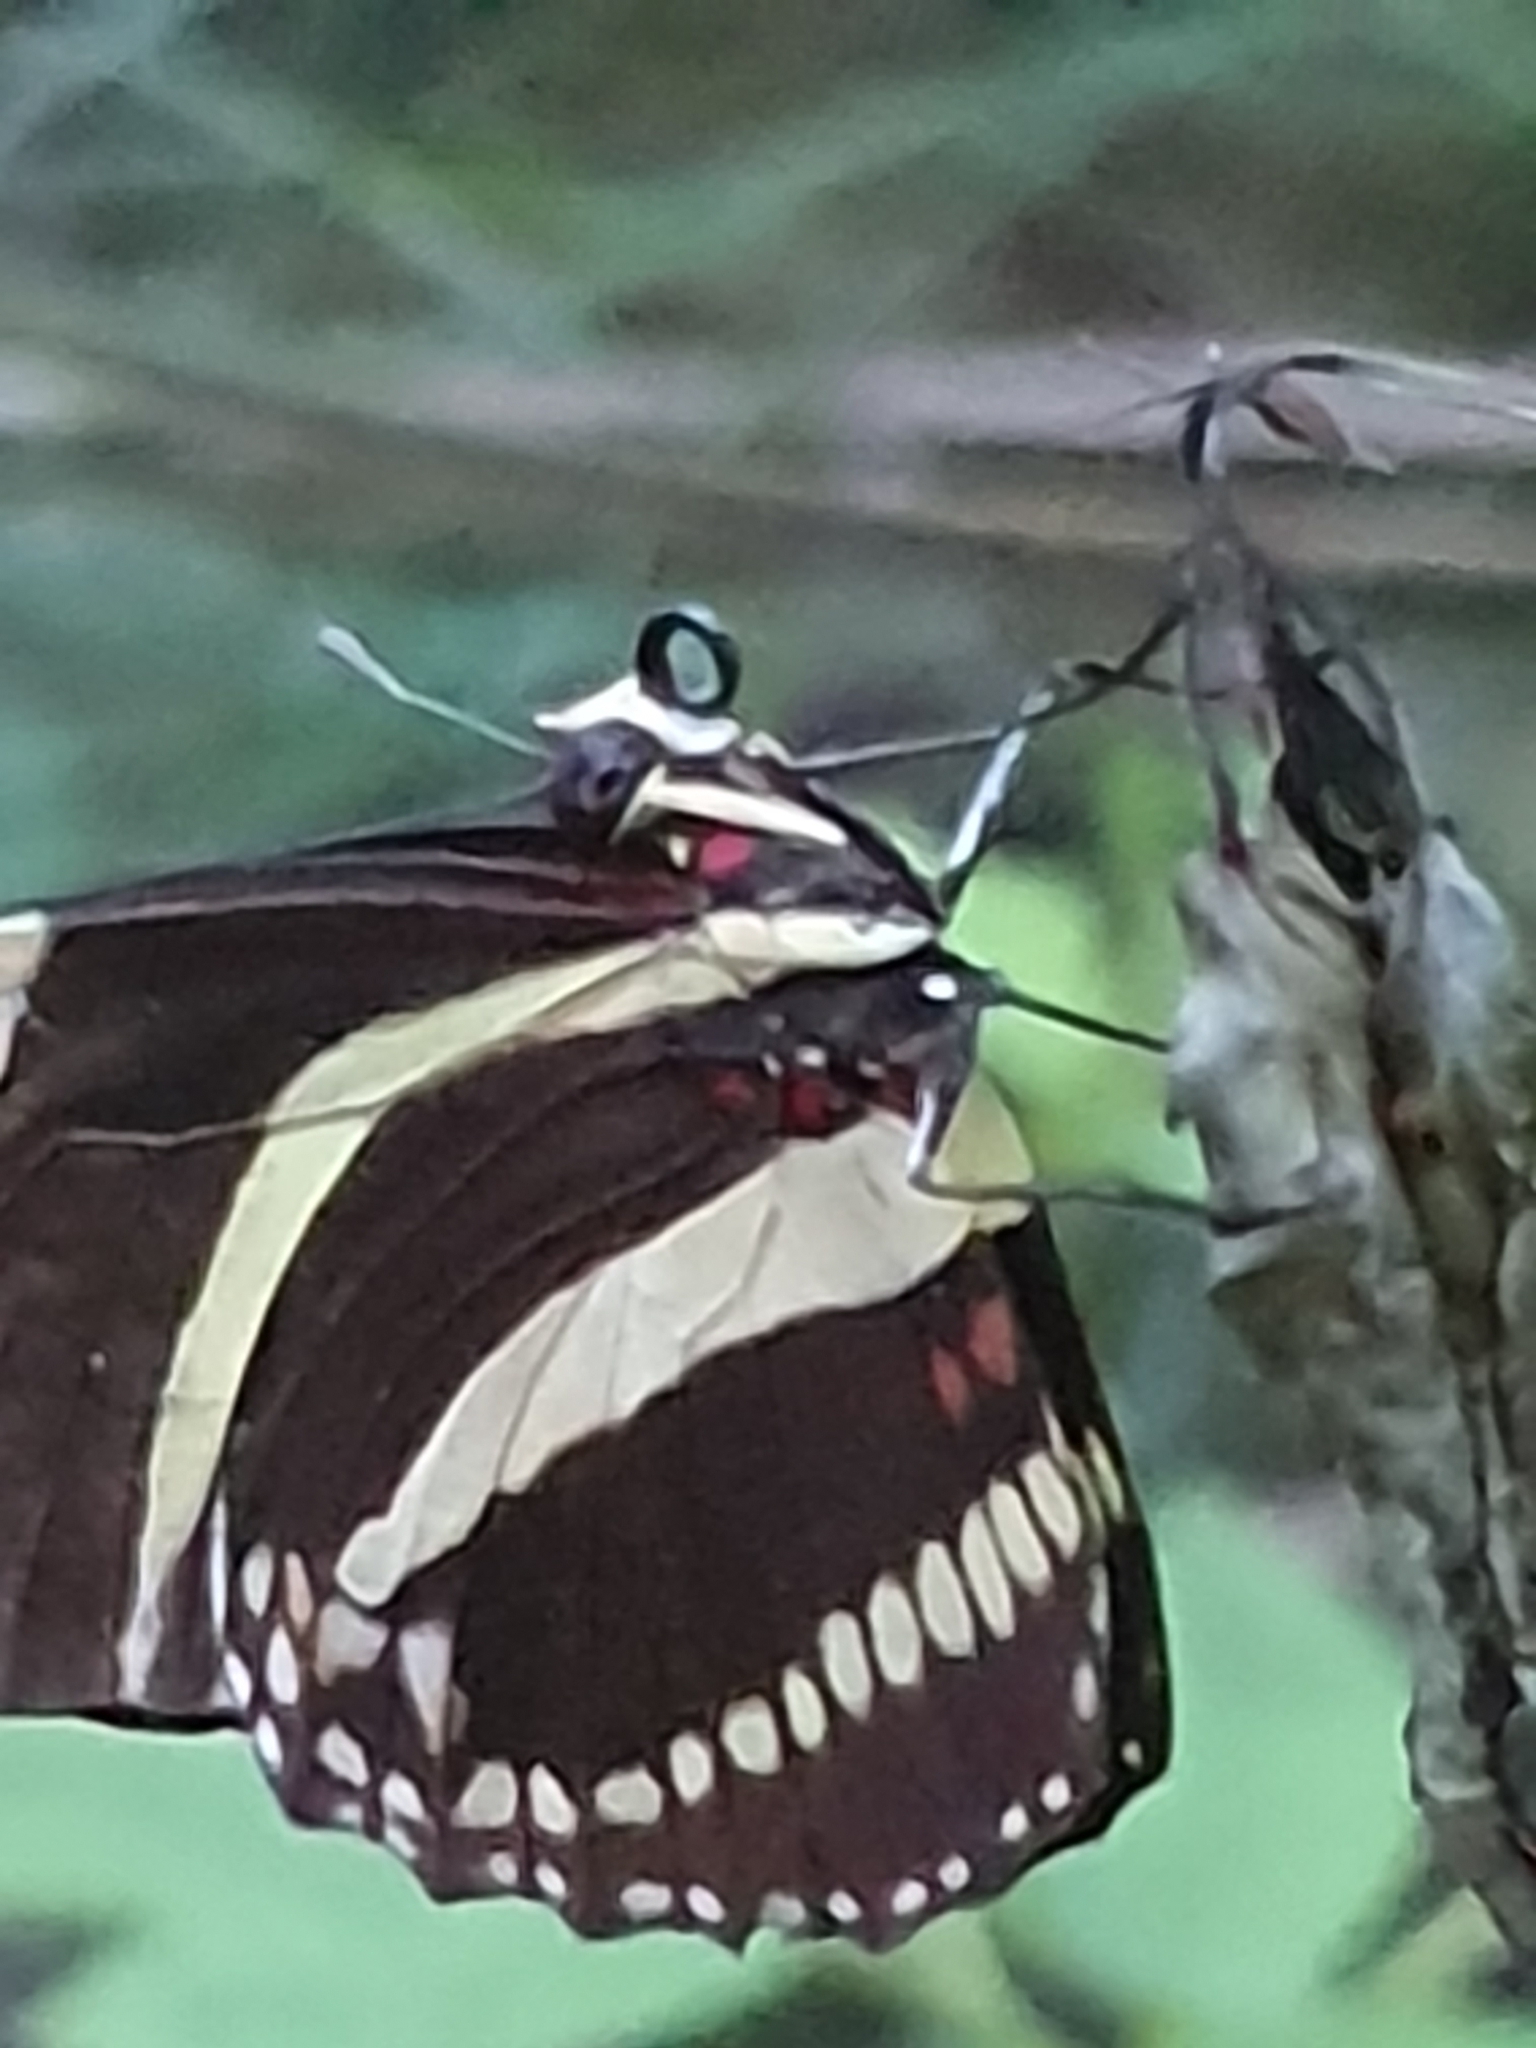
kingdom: Animalia
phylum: Arthropoda
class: Insecta
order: Lepidoptera
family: Nymphalidae
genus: Heliconius
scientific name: Heliconius charithonia
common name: Zebra long wing
